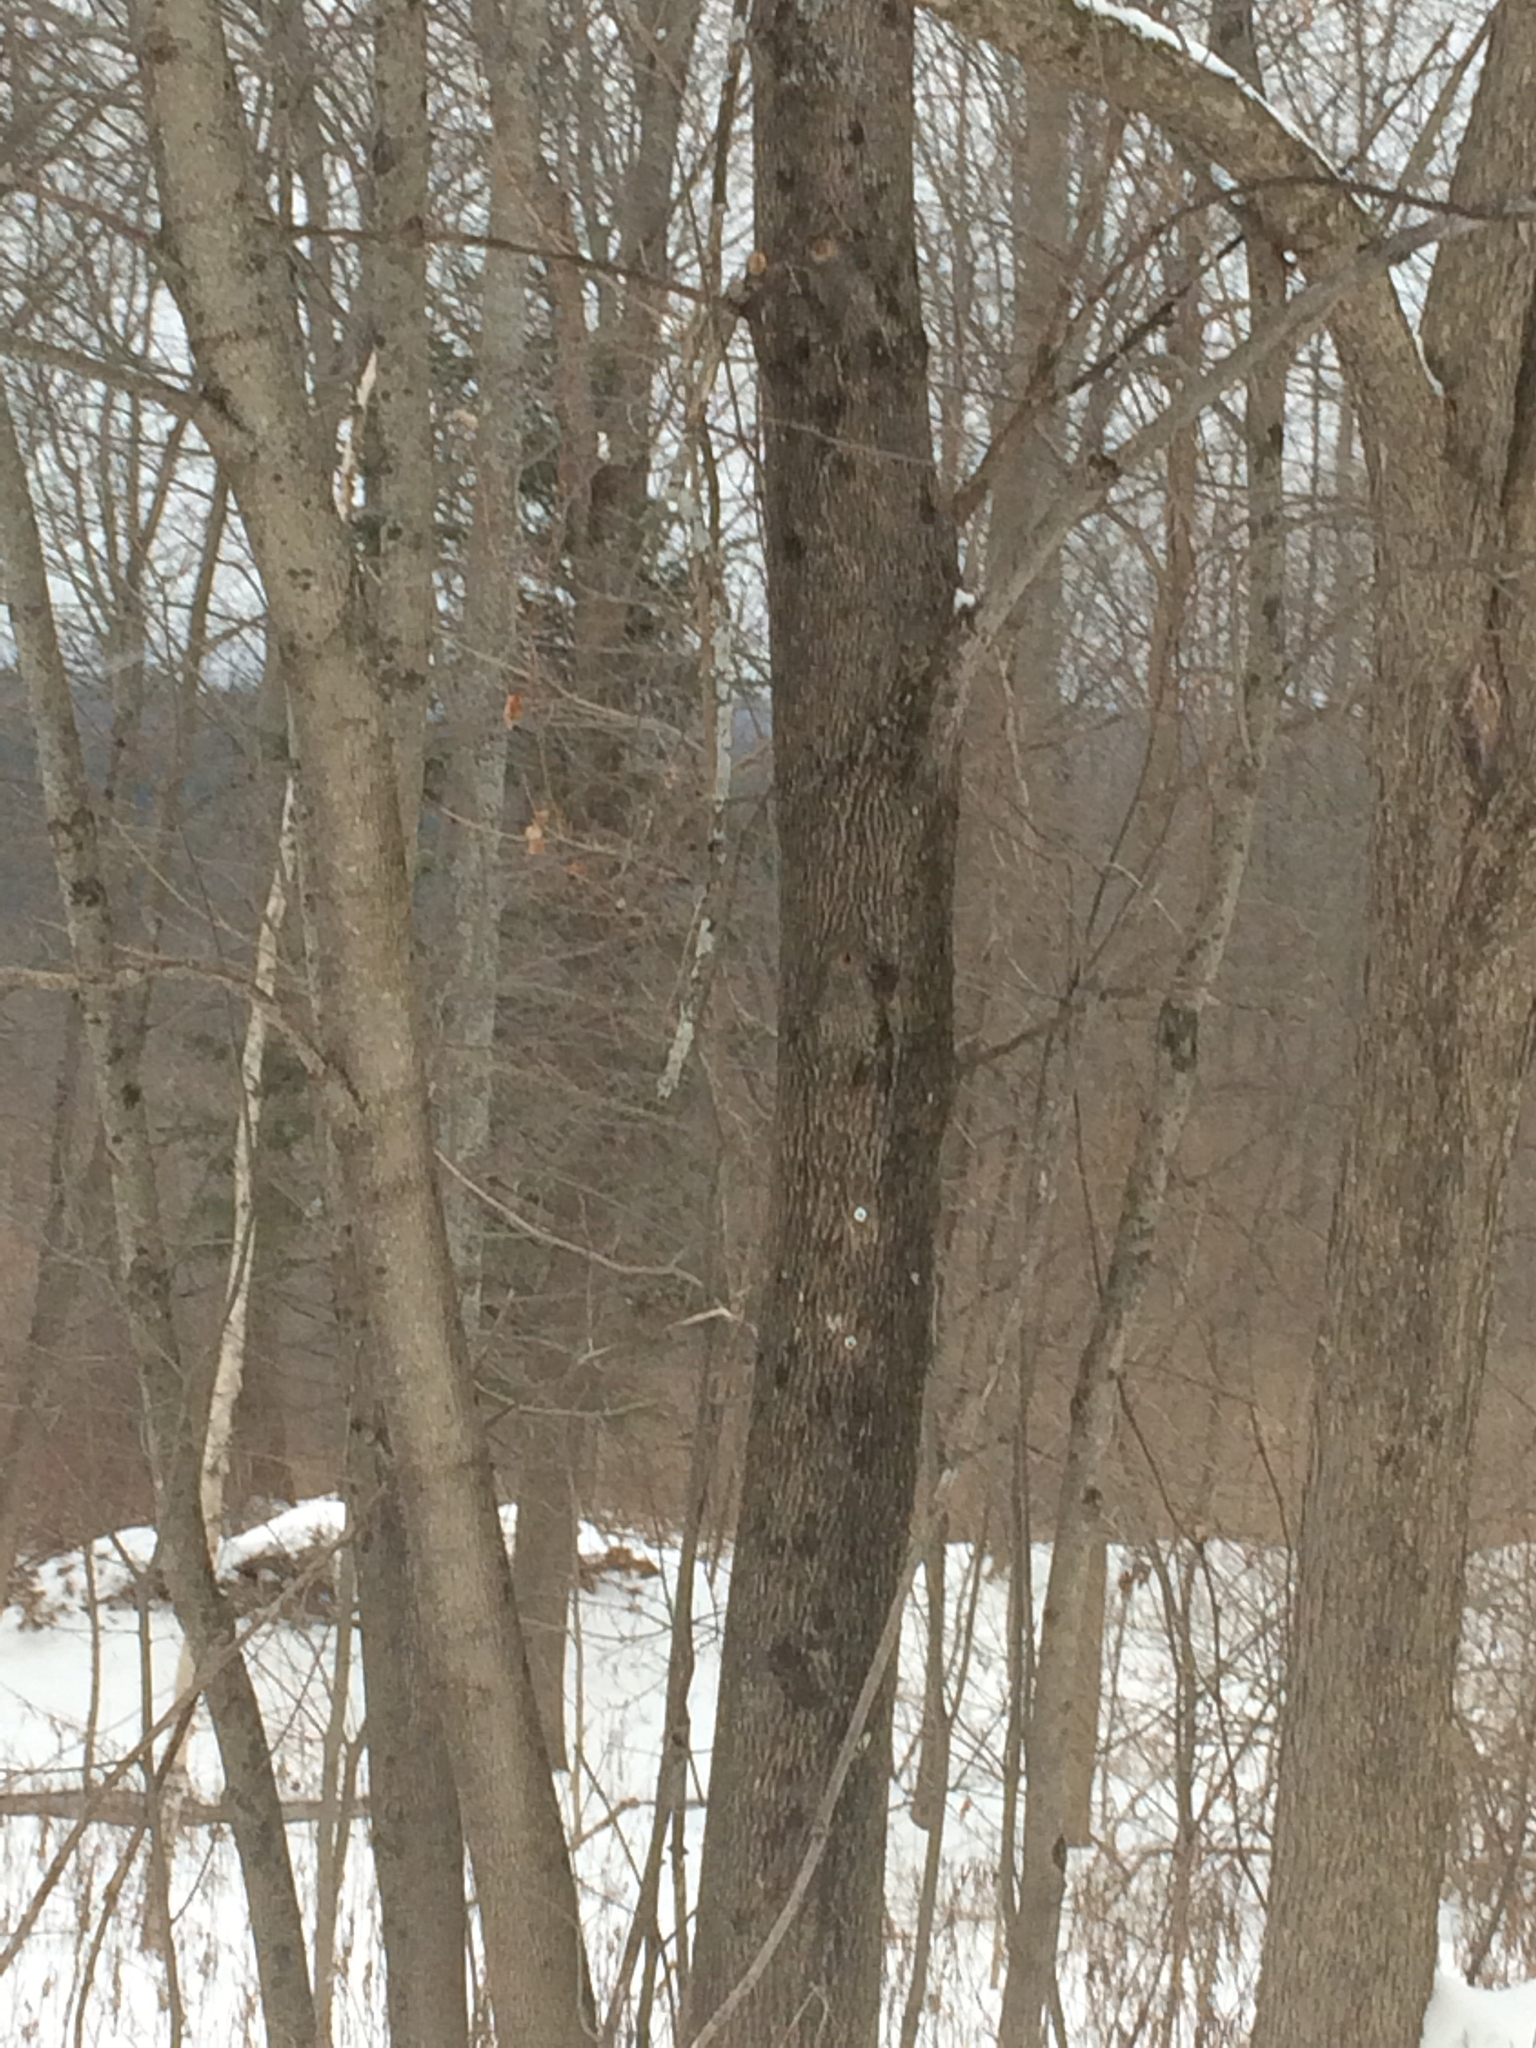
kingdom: Plantae
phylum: Tracheophyta
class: Magnoliopsida
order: Lamiales
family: Oleaceae
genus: Fraxinus
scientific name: Fraxinus americana
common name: White ash
